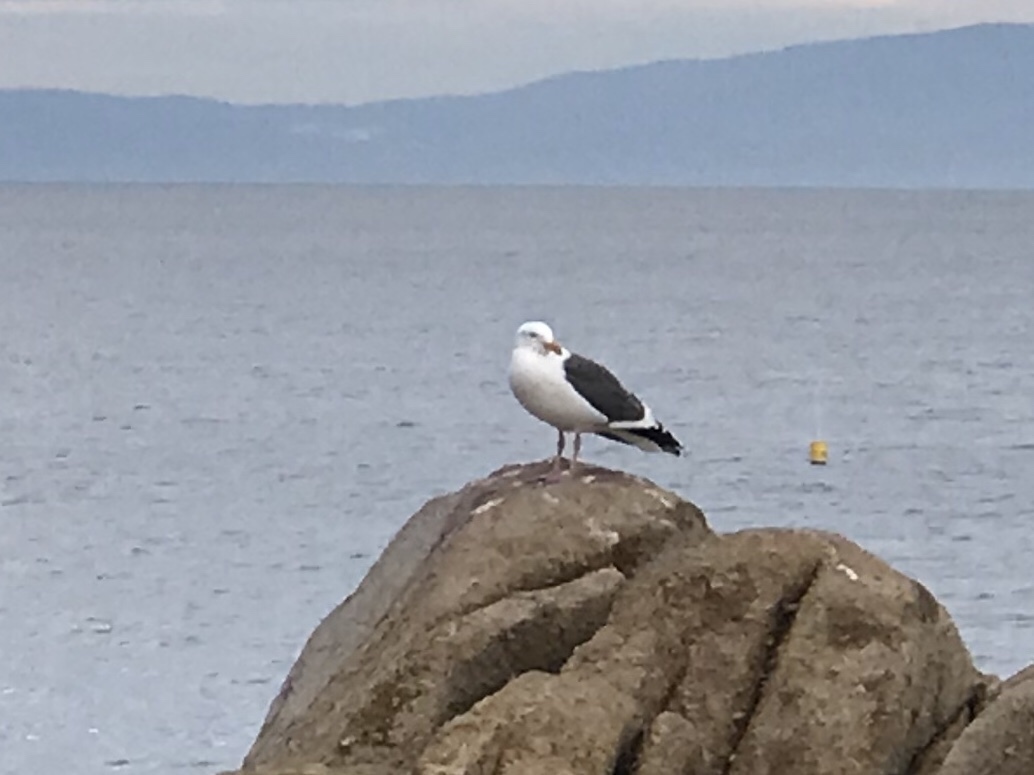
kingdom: Animalia
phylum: Chordata
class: Aves
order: Charadriiformes
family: Laridae
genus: Larus
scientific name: Larus occidentalis
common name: Western gull
